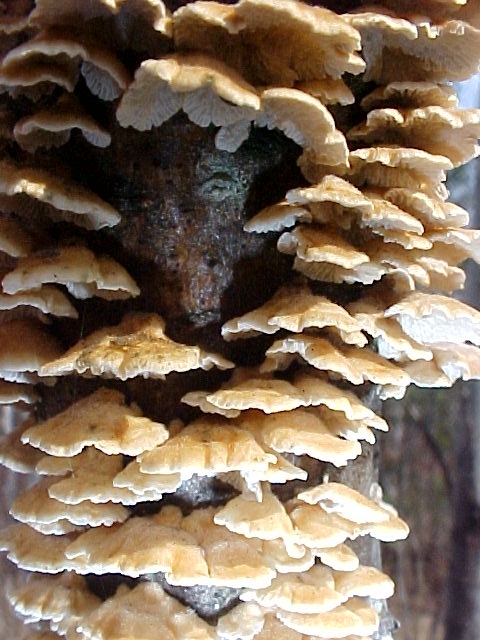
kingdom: Fungi
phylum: Basidiomycota
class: Agaricomycetes
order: Amylocorticiales
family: Amylocorticiaceae
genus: Plicaturopsis
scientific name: Plicaturopsis crispa
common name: Crimped gill
